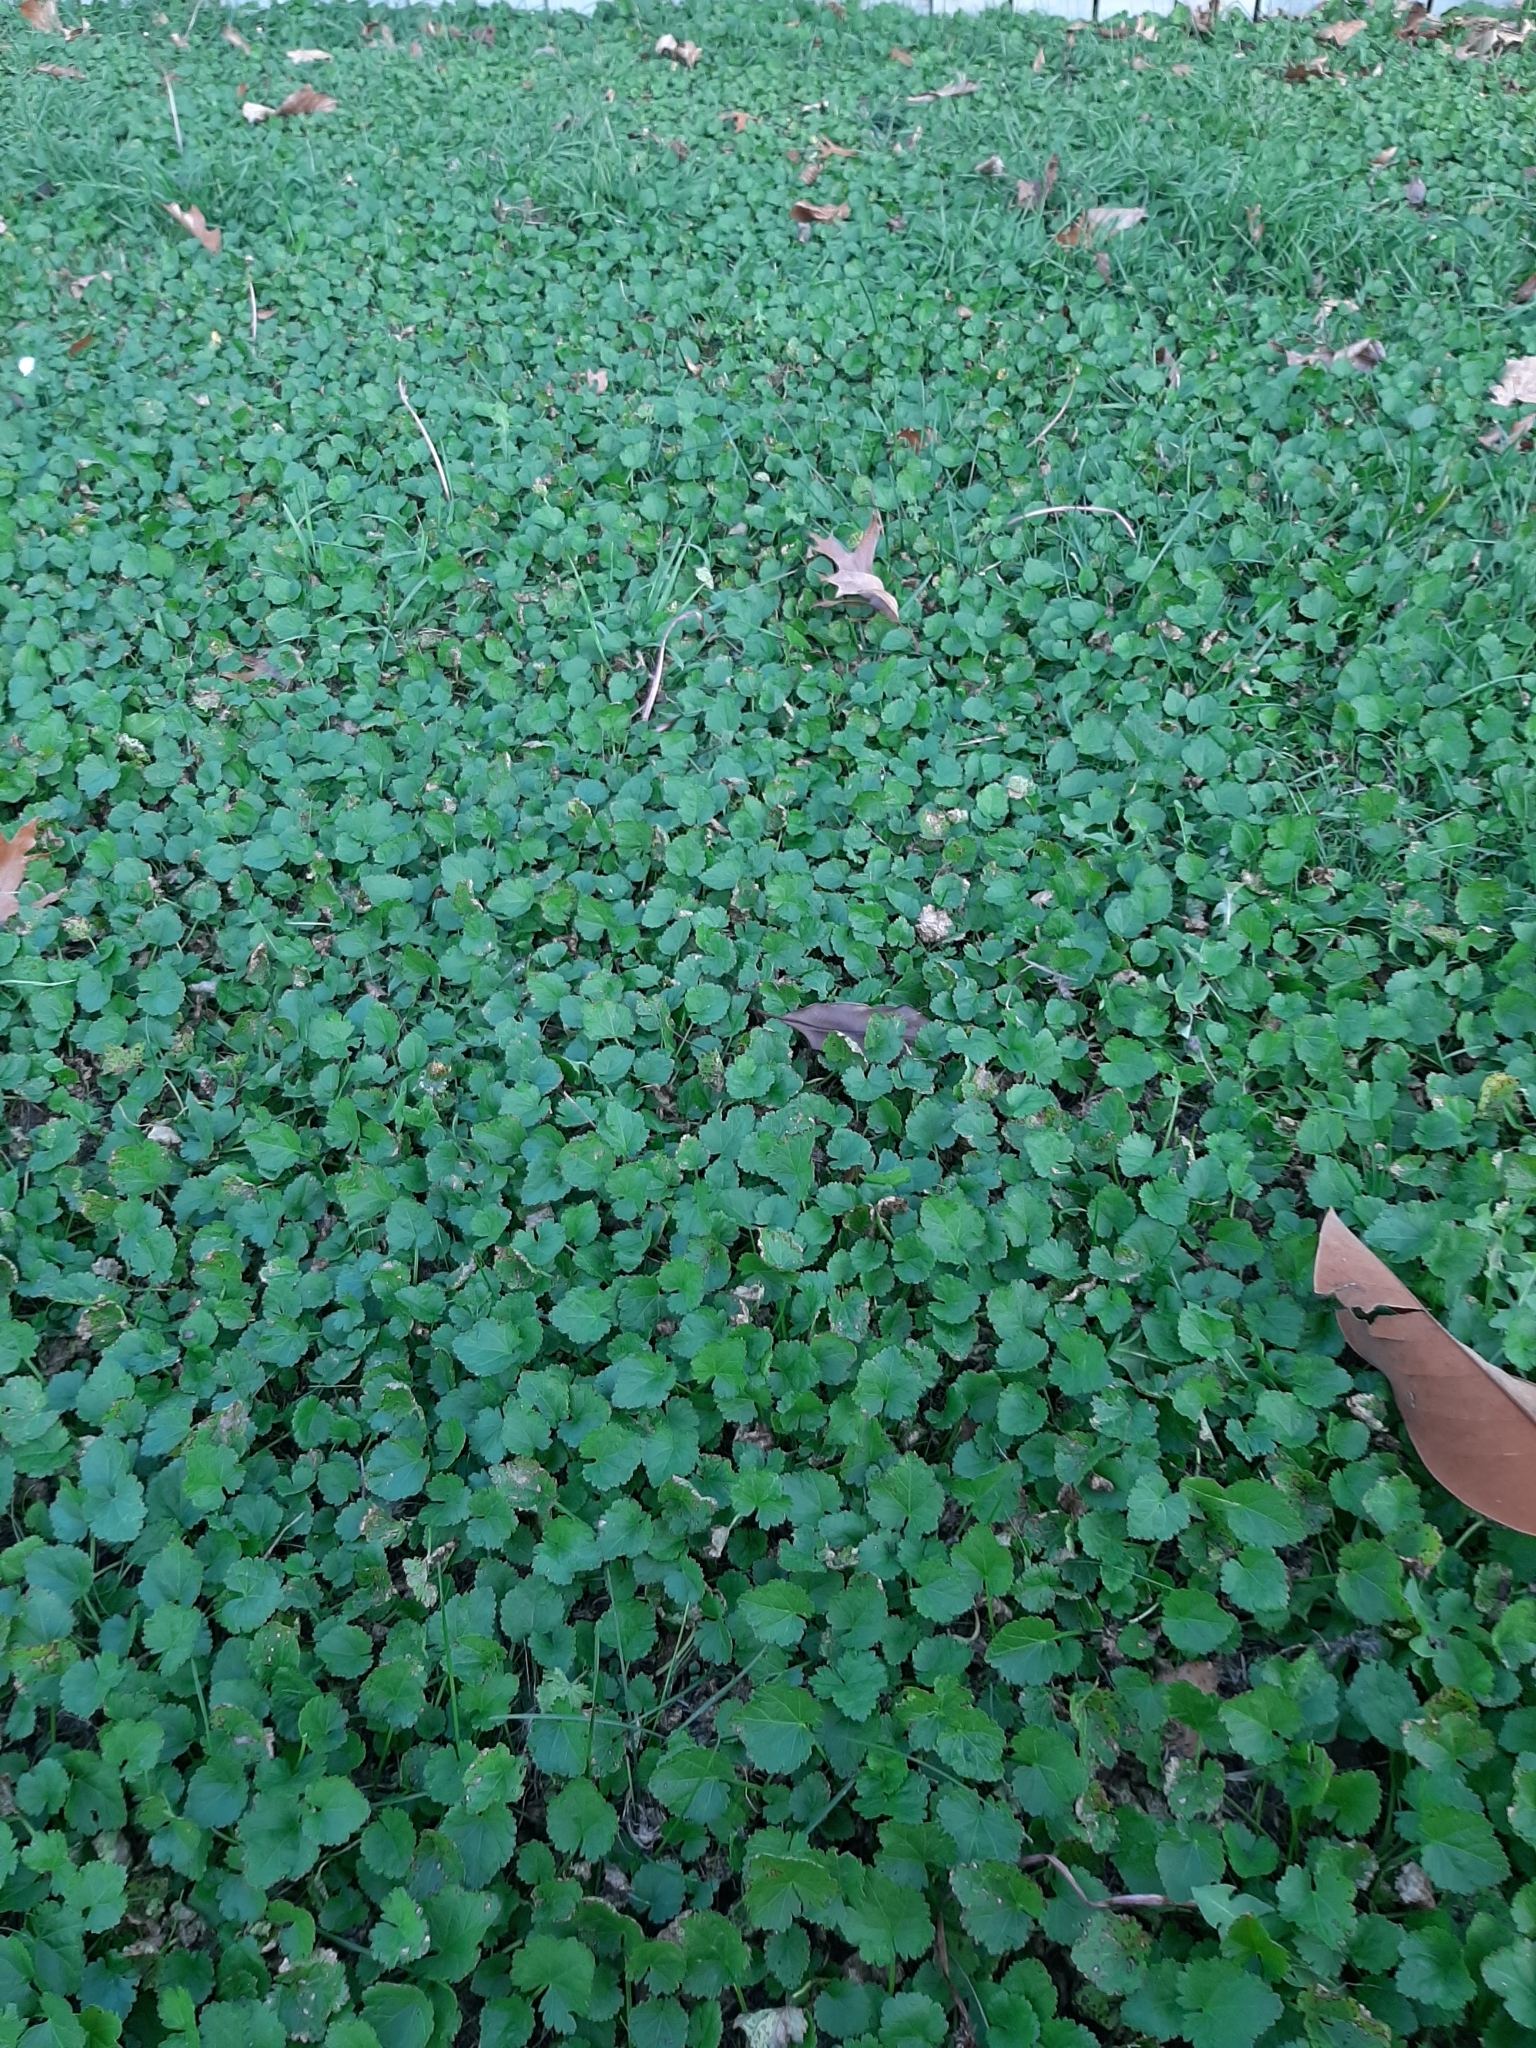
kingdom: Plantae
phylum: Tracheophyta
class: Magnoliopsida
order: Malvales
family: Malvaceae
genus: Modiola
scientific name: Modiola caroliniana
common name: Carolina bristlemallow
